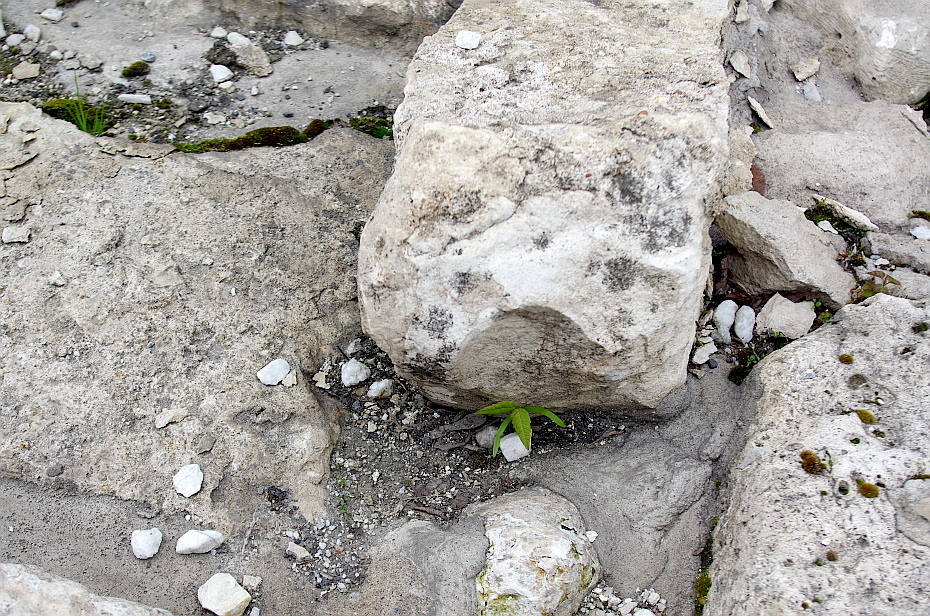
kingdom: Plantae
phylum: Tracheophyta
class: Magnoliopsida
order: Sapindales
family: Sapindaceae
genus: Acer
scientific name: Acer negundo
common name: Ashleaf maple
